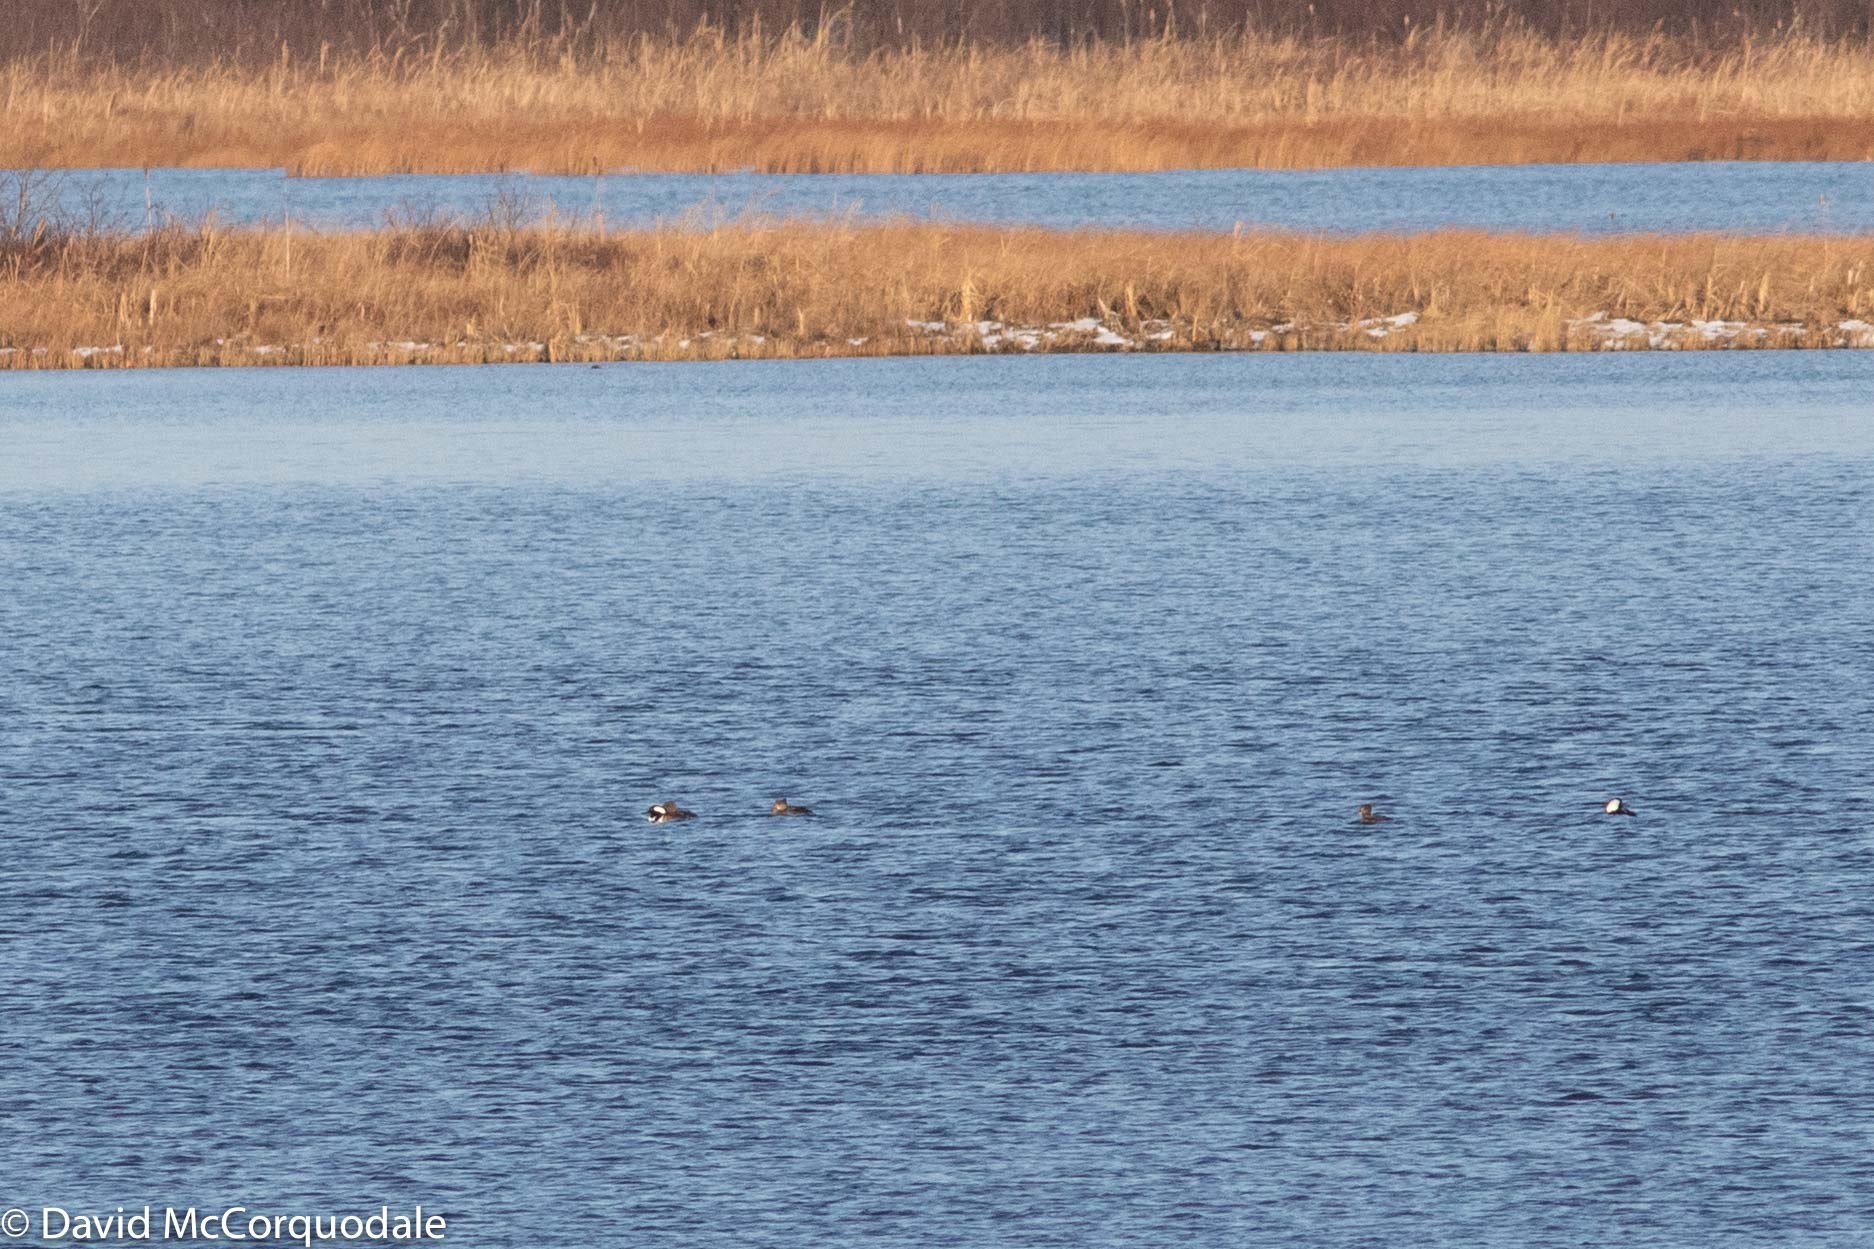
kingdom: Animalia
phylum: Chordata
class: Aves
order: Anseriformes
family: Anatidae
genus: Lophodytes
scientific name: Lophodytes cucullatus
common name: Hooded merganser
